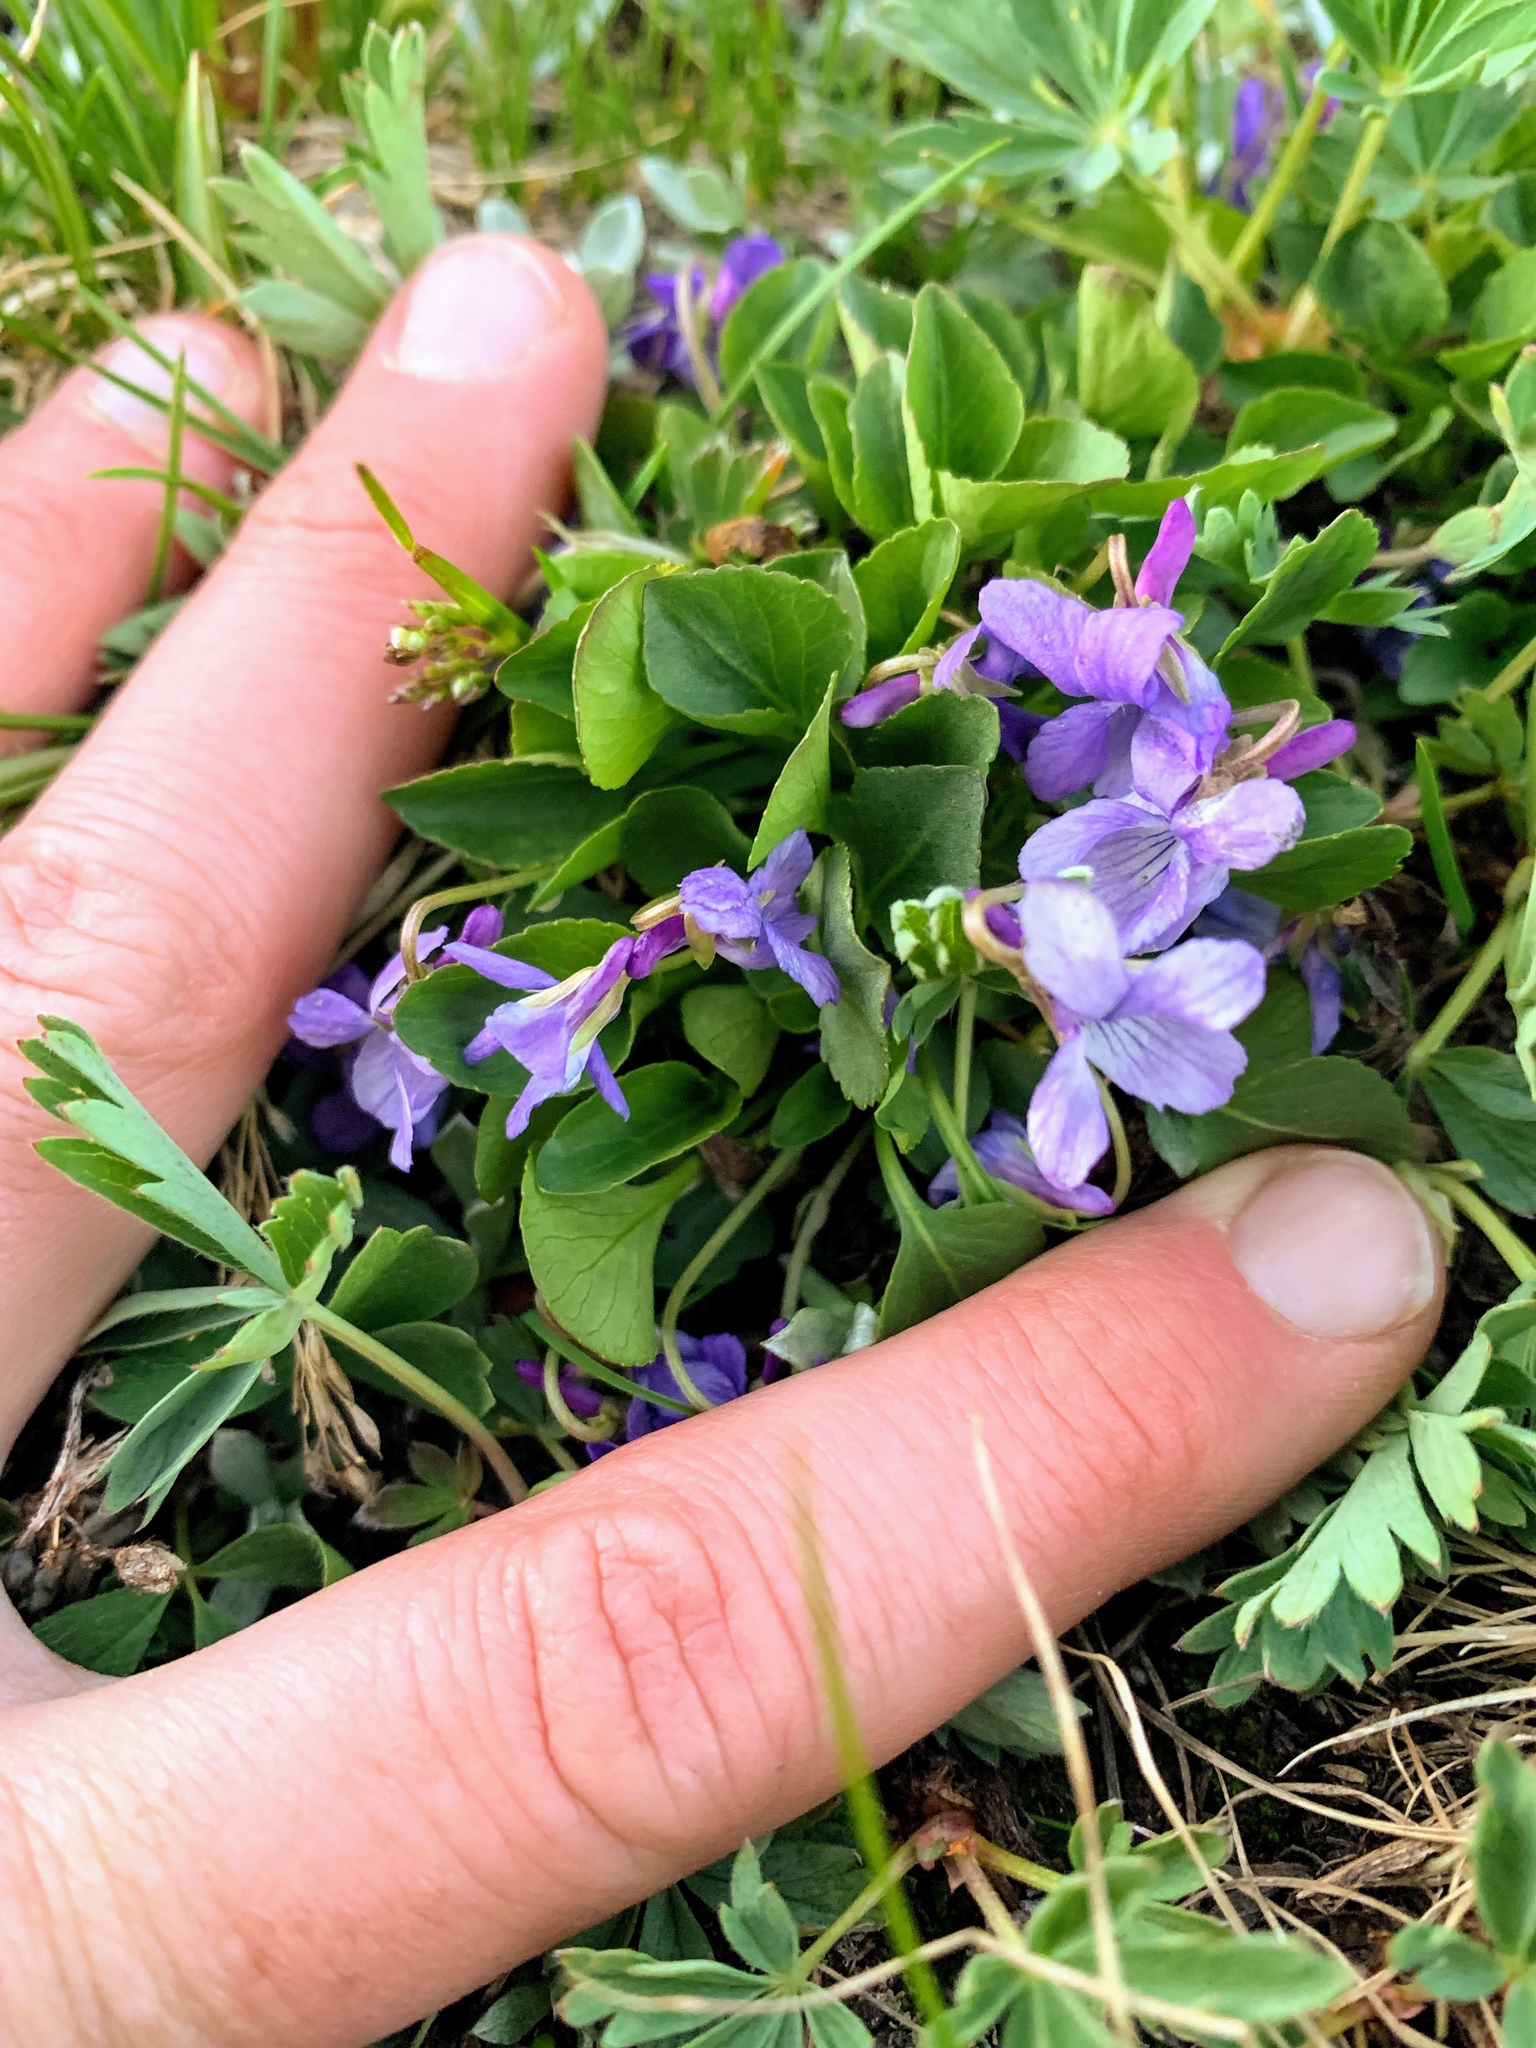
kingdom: Plantae
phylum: Tracheophyta
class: Magnoliopsida
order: Malpighiales
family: Violaceae
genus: Viola
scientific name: Viola adunca
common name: Sand violet
